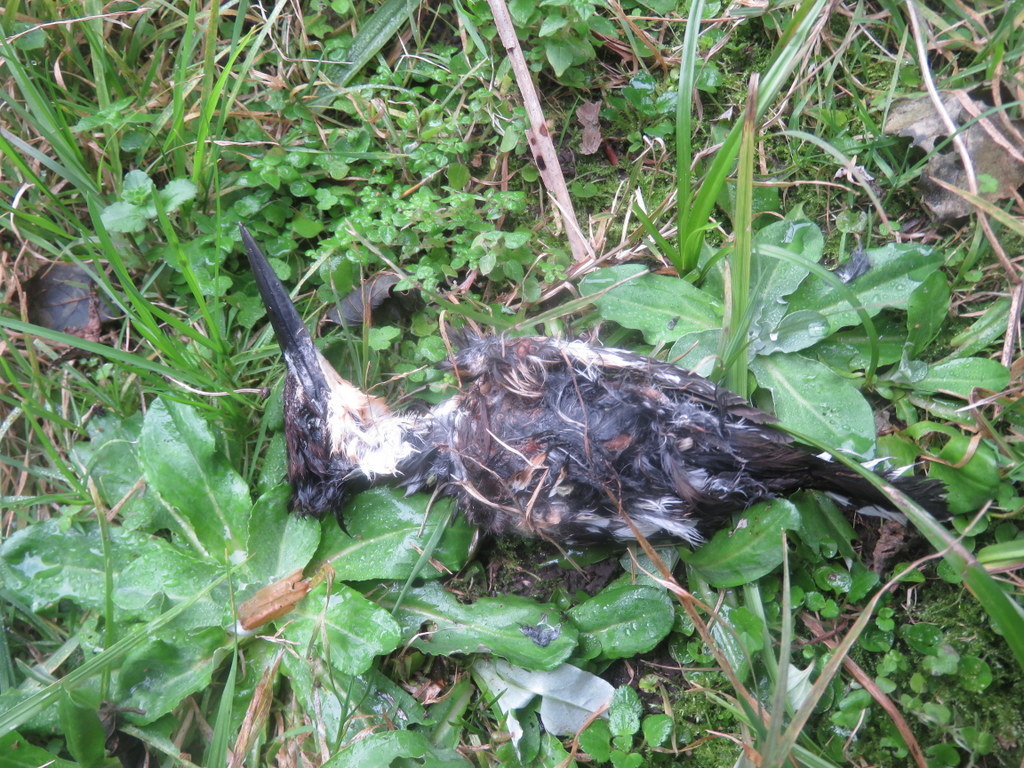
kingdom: Animalia
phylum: Chordata
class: Aves
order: Coraciiformes
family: Alcedinidae
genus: Chloroceryle
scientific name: Chloroceryle americana
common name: Green kingfisher
